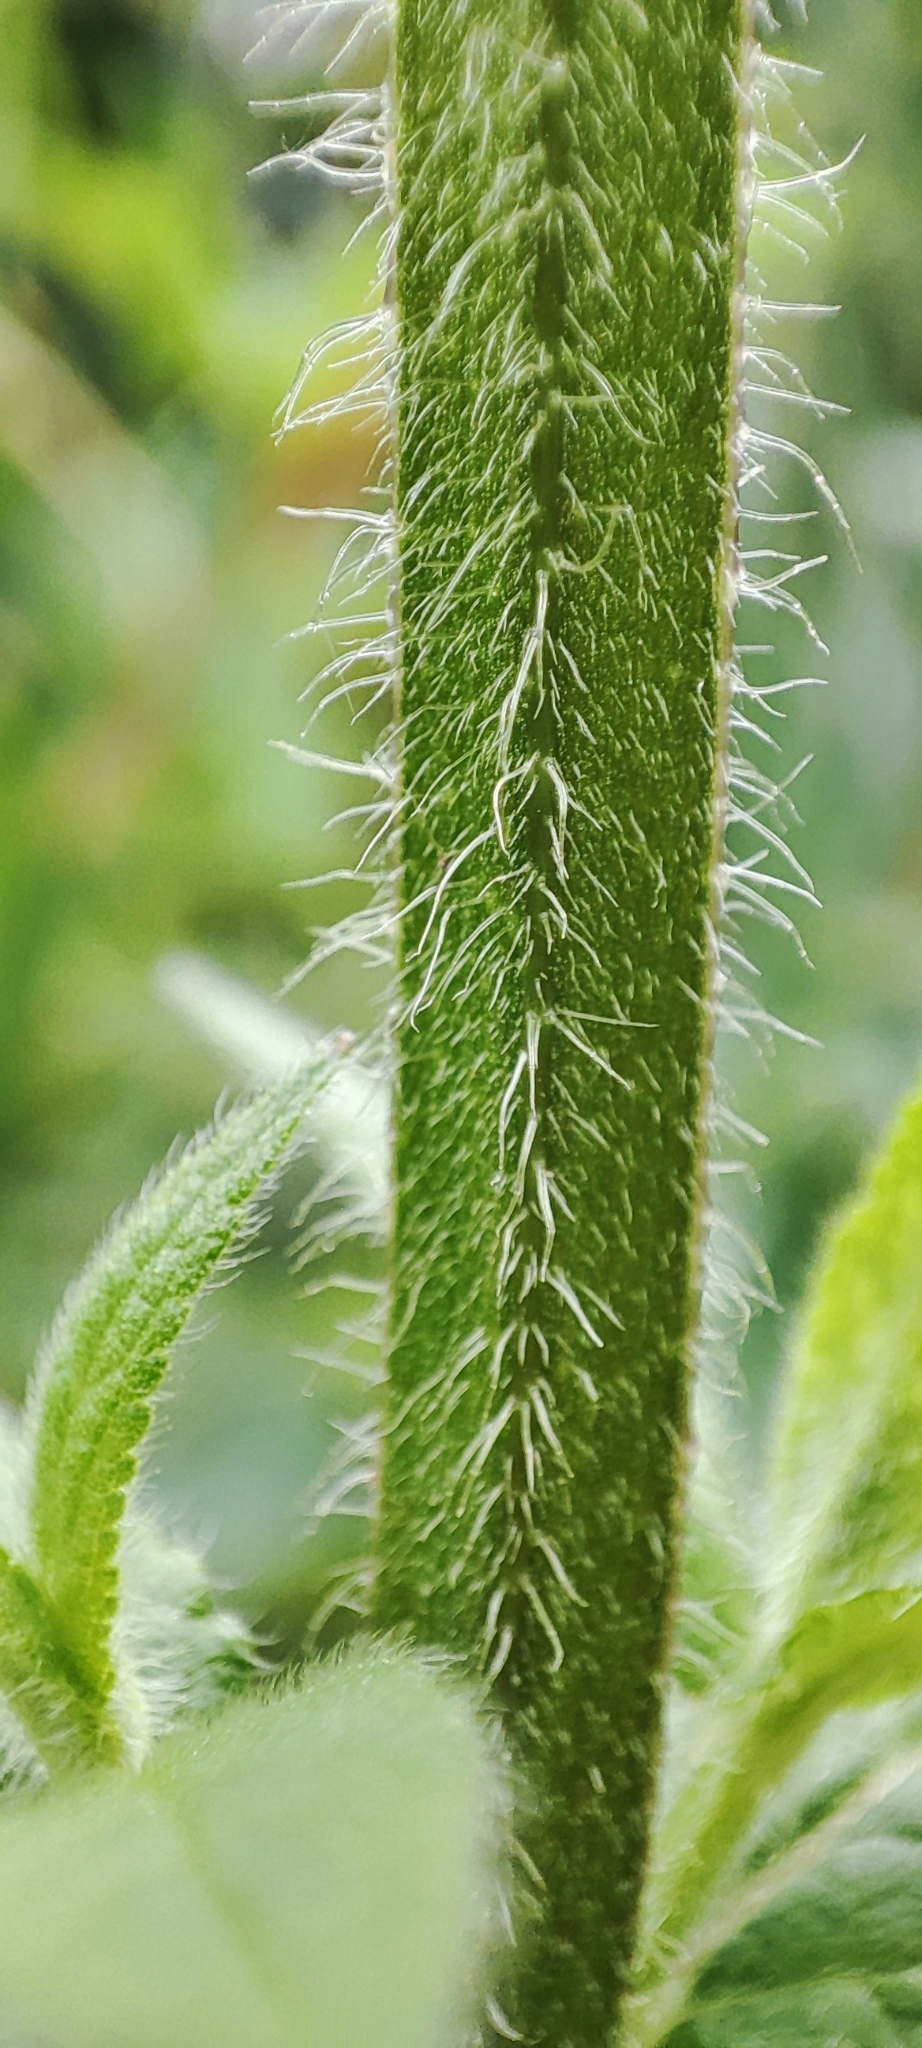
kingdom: Plantae
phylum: Tracheophyta
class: Magnoliopsida
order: Lamiales
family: Lamiaceae
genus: Stachys
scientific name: Stachys palustris
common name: Marsh woundwort
